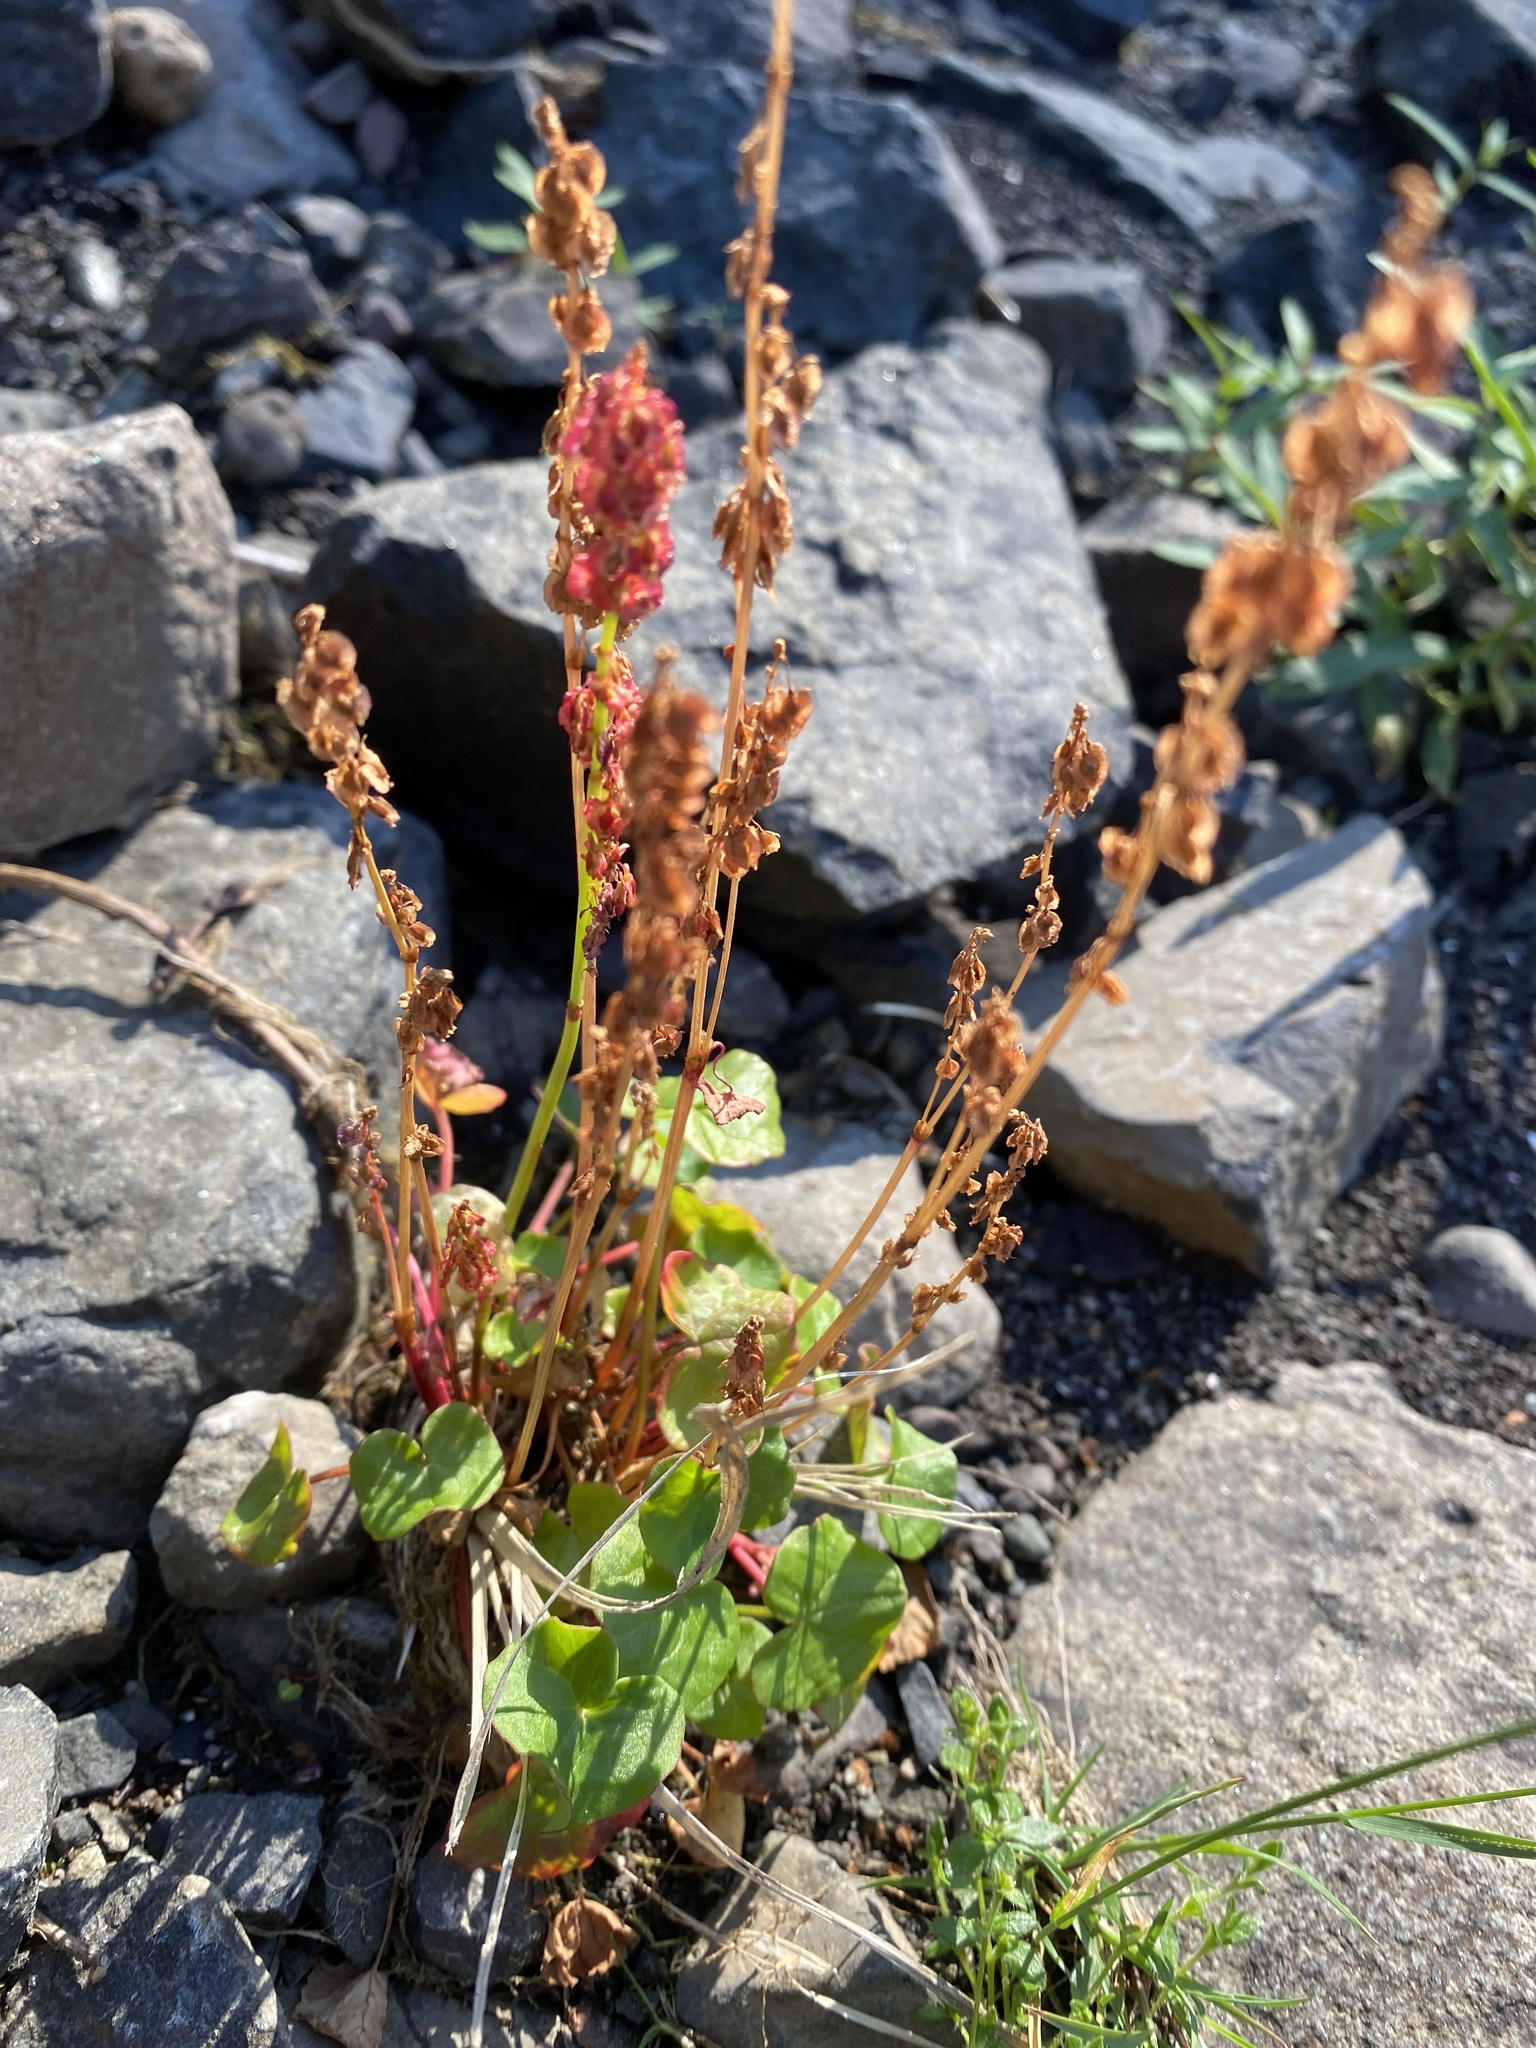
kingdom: Plantae
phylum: Tracheophyta
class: Magnoliopsida
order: Caryophyllales
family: Polygonaceae
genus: Oxyria
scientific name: Oxyria digyna
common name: Alpine mountain-sorrel
